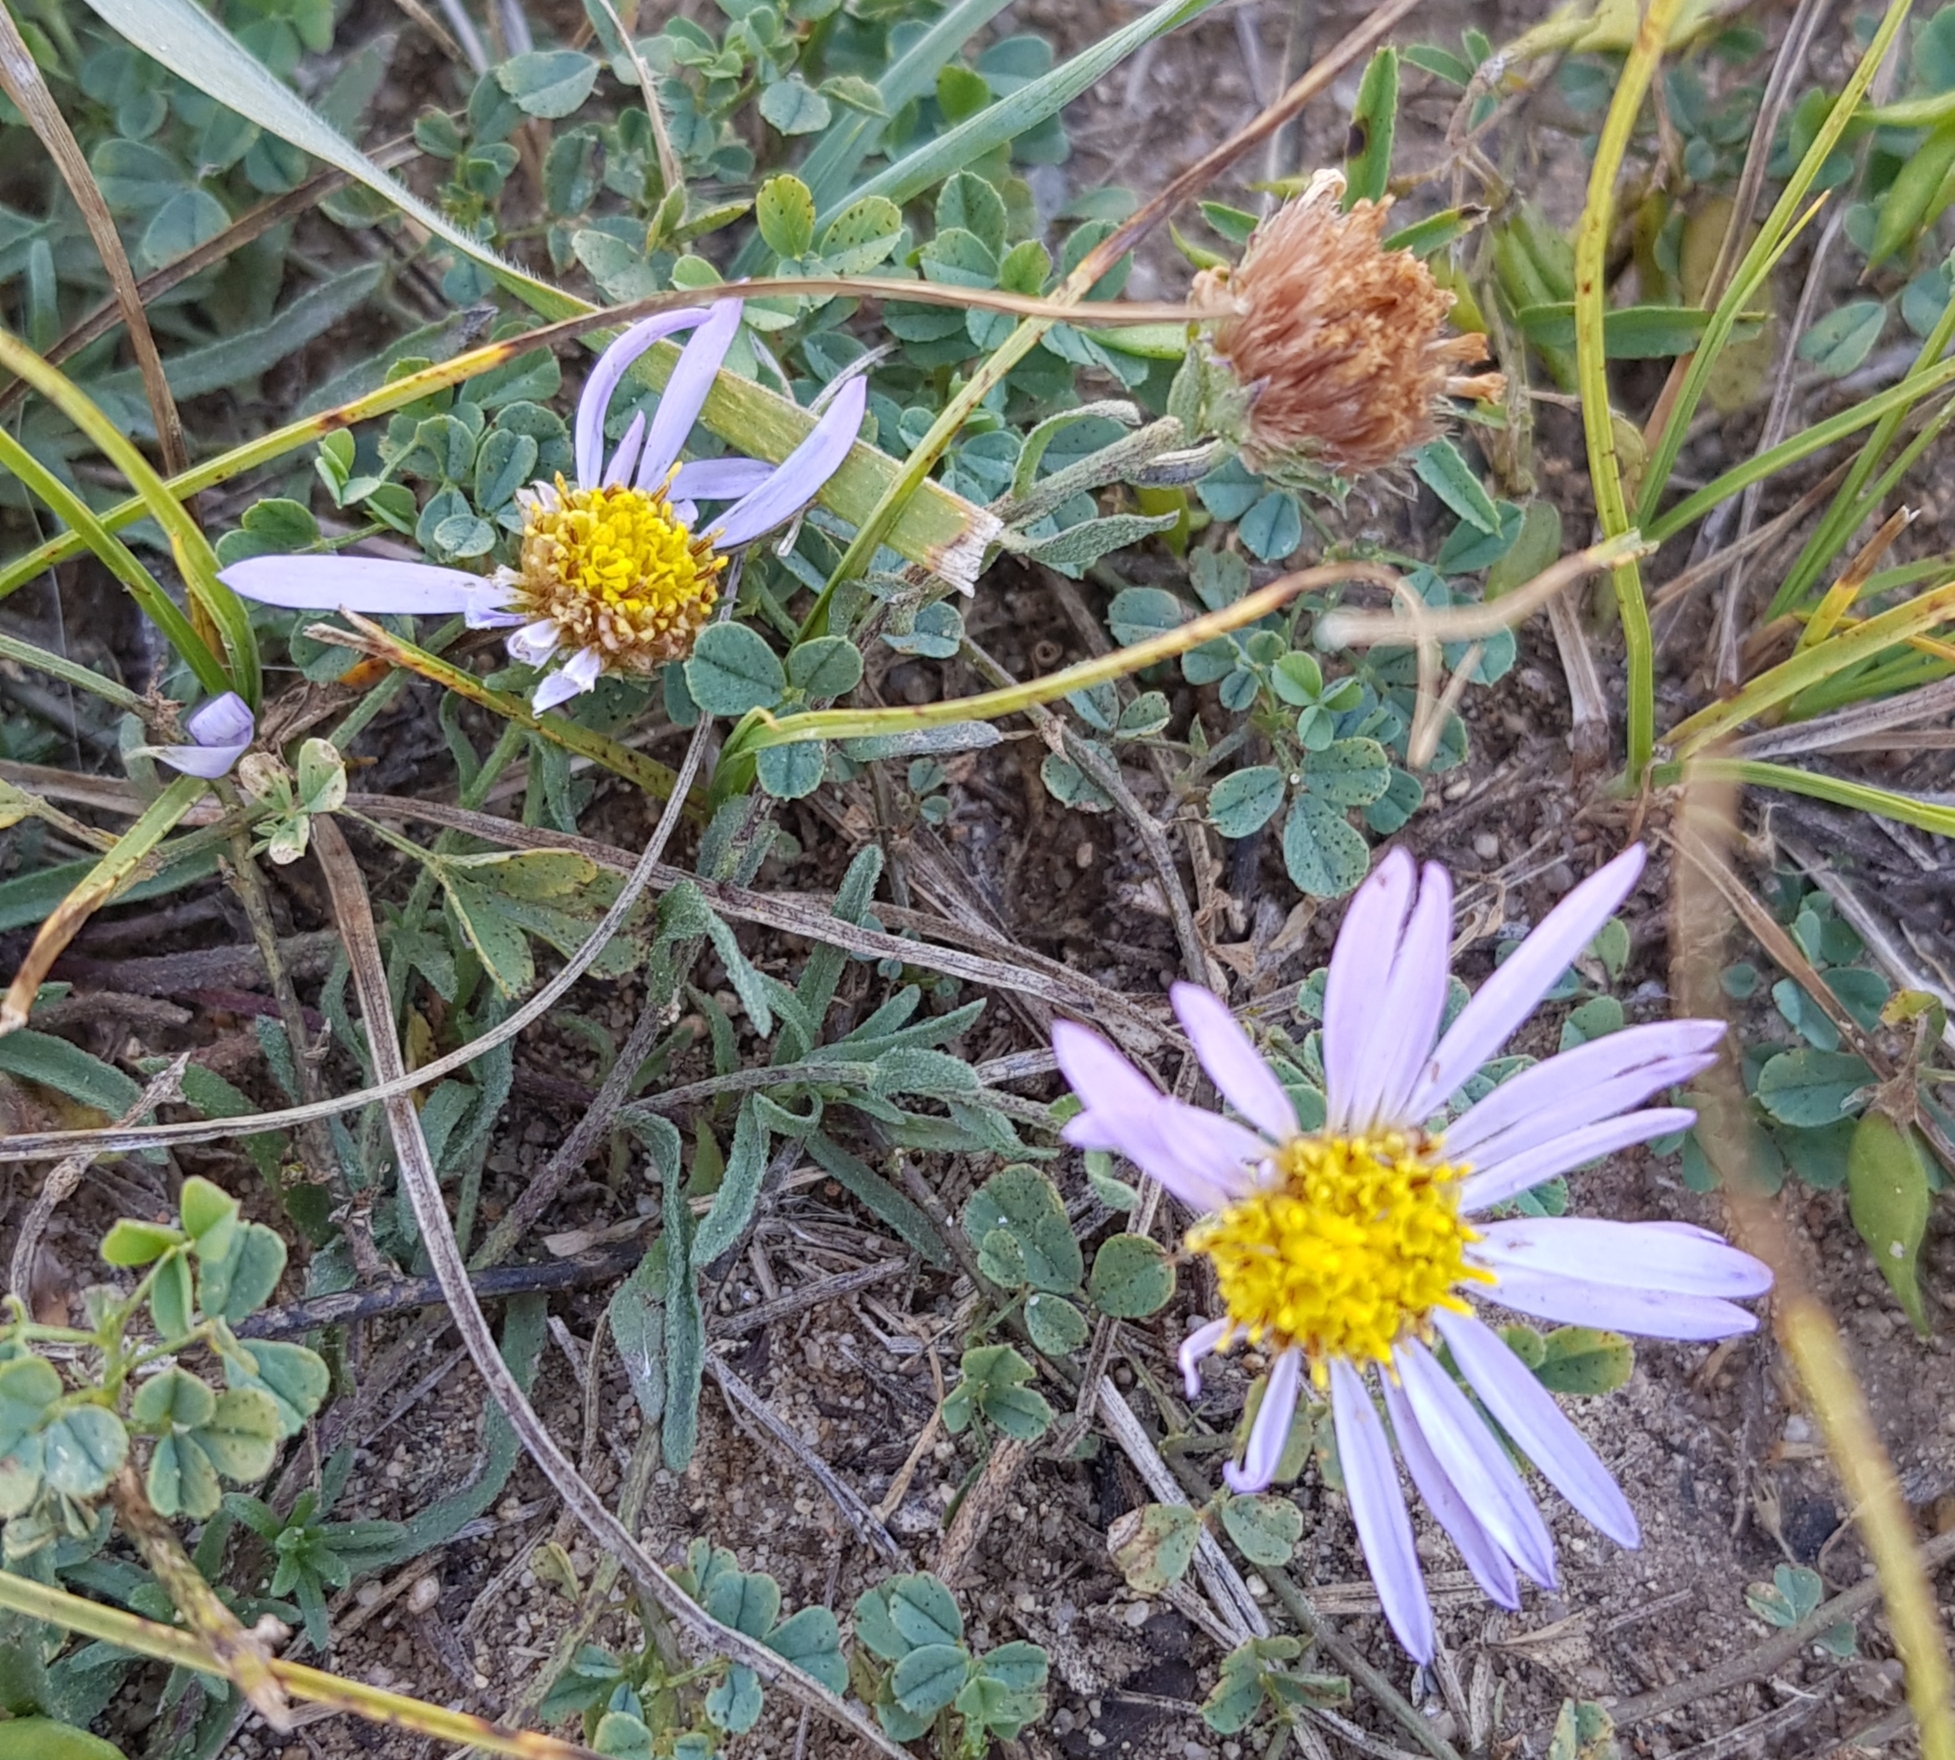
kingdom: Plantae
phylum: Tracheophyta
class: Magnoliopsida
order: Asterales
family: Asteraceae
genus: Aster
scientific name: Aster biennis
